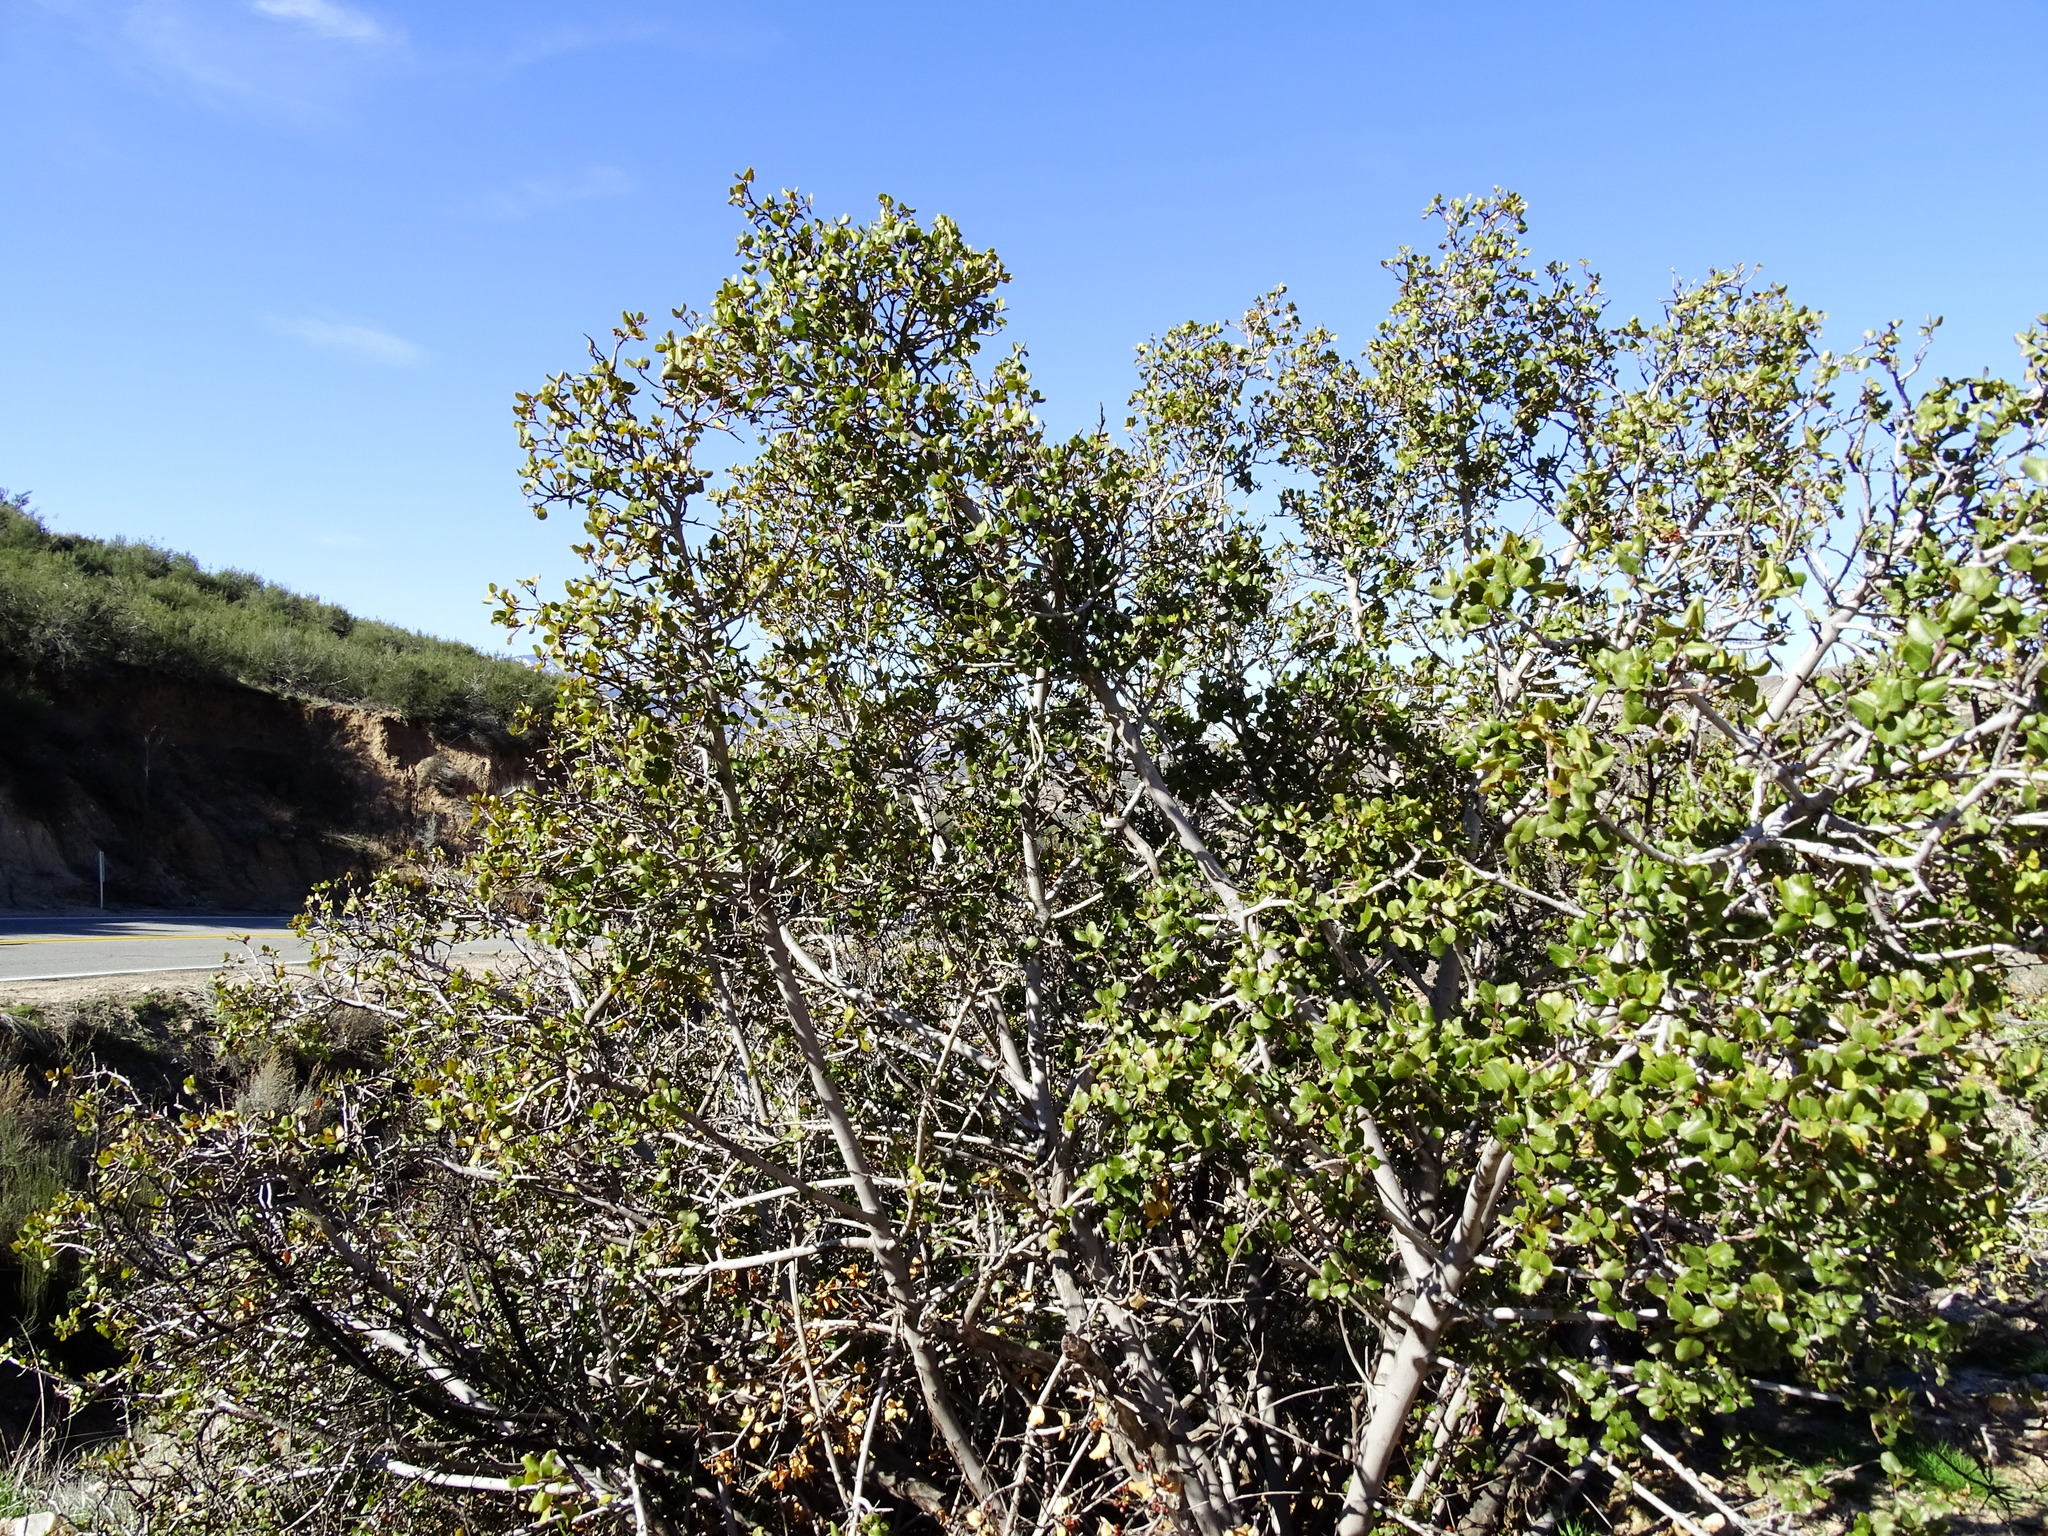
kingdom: Plantae
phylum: Tracheophyta
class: Magnoliopsida
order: Rosales
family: Rhamnaceae
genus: Endotropis
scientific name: Endotropis crocea
